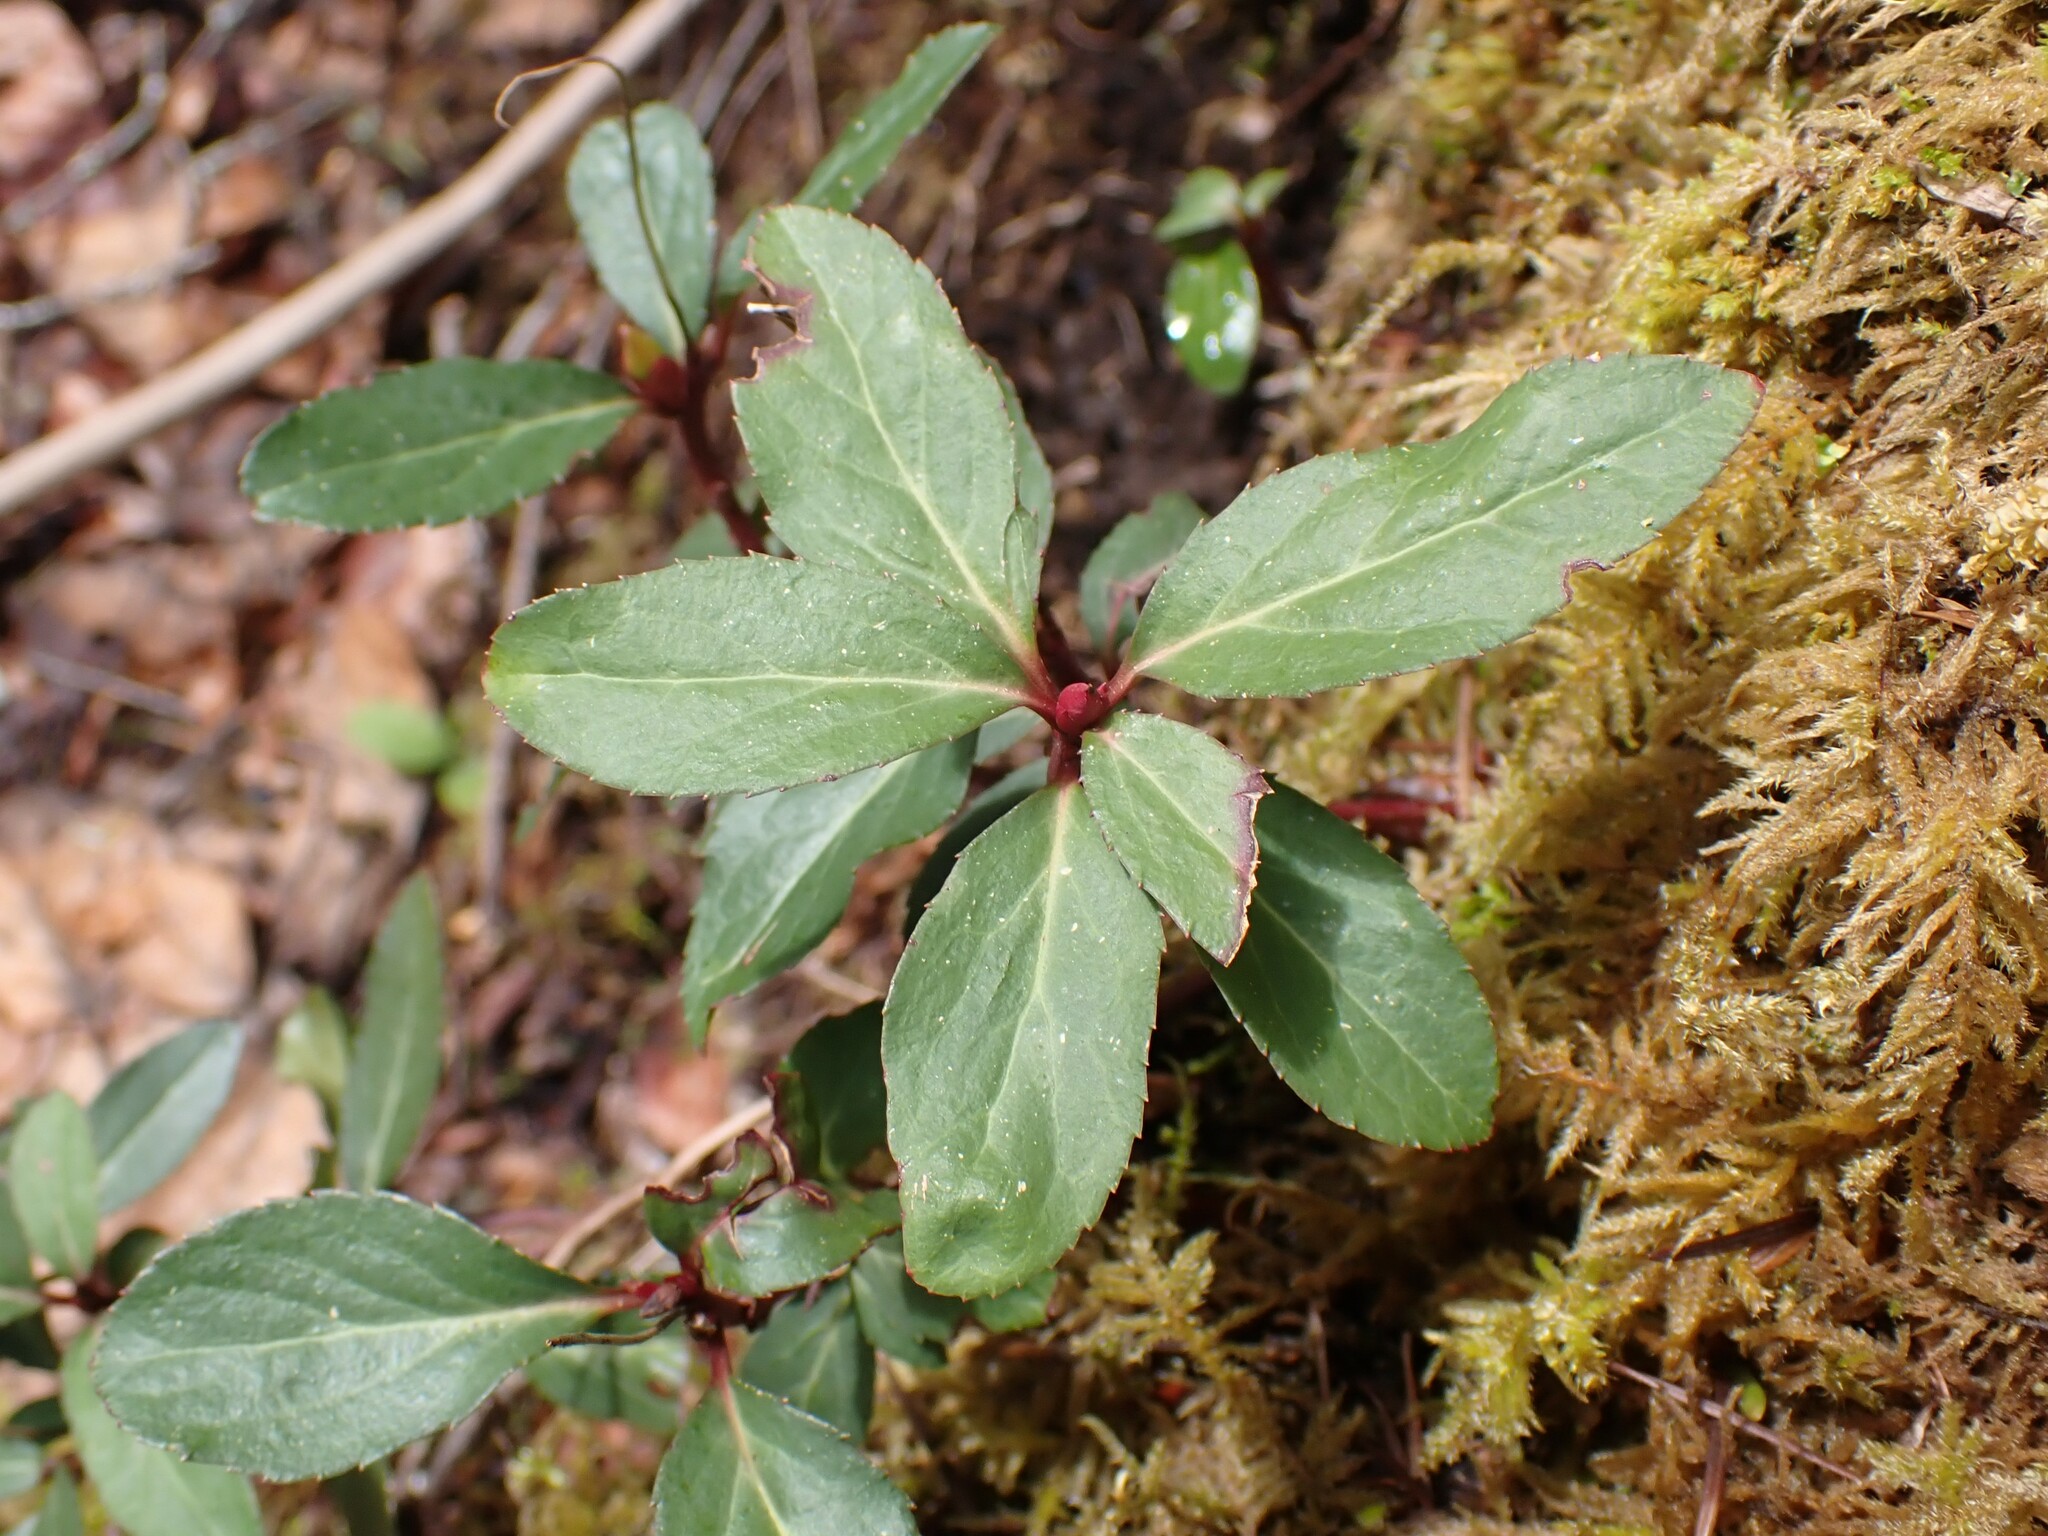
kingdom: Plantae
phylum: Tracheophyta
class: Magnoliopsida
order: Ericales
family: Ericaceae
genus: Chimaphila
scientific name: Chimaphila menziesii
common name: Menzies' pipsissewa
